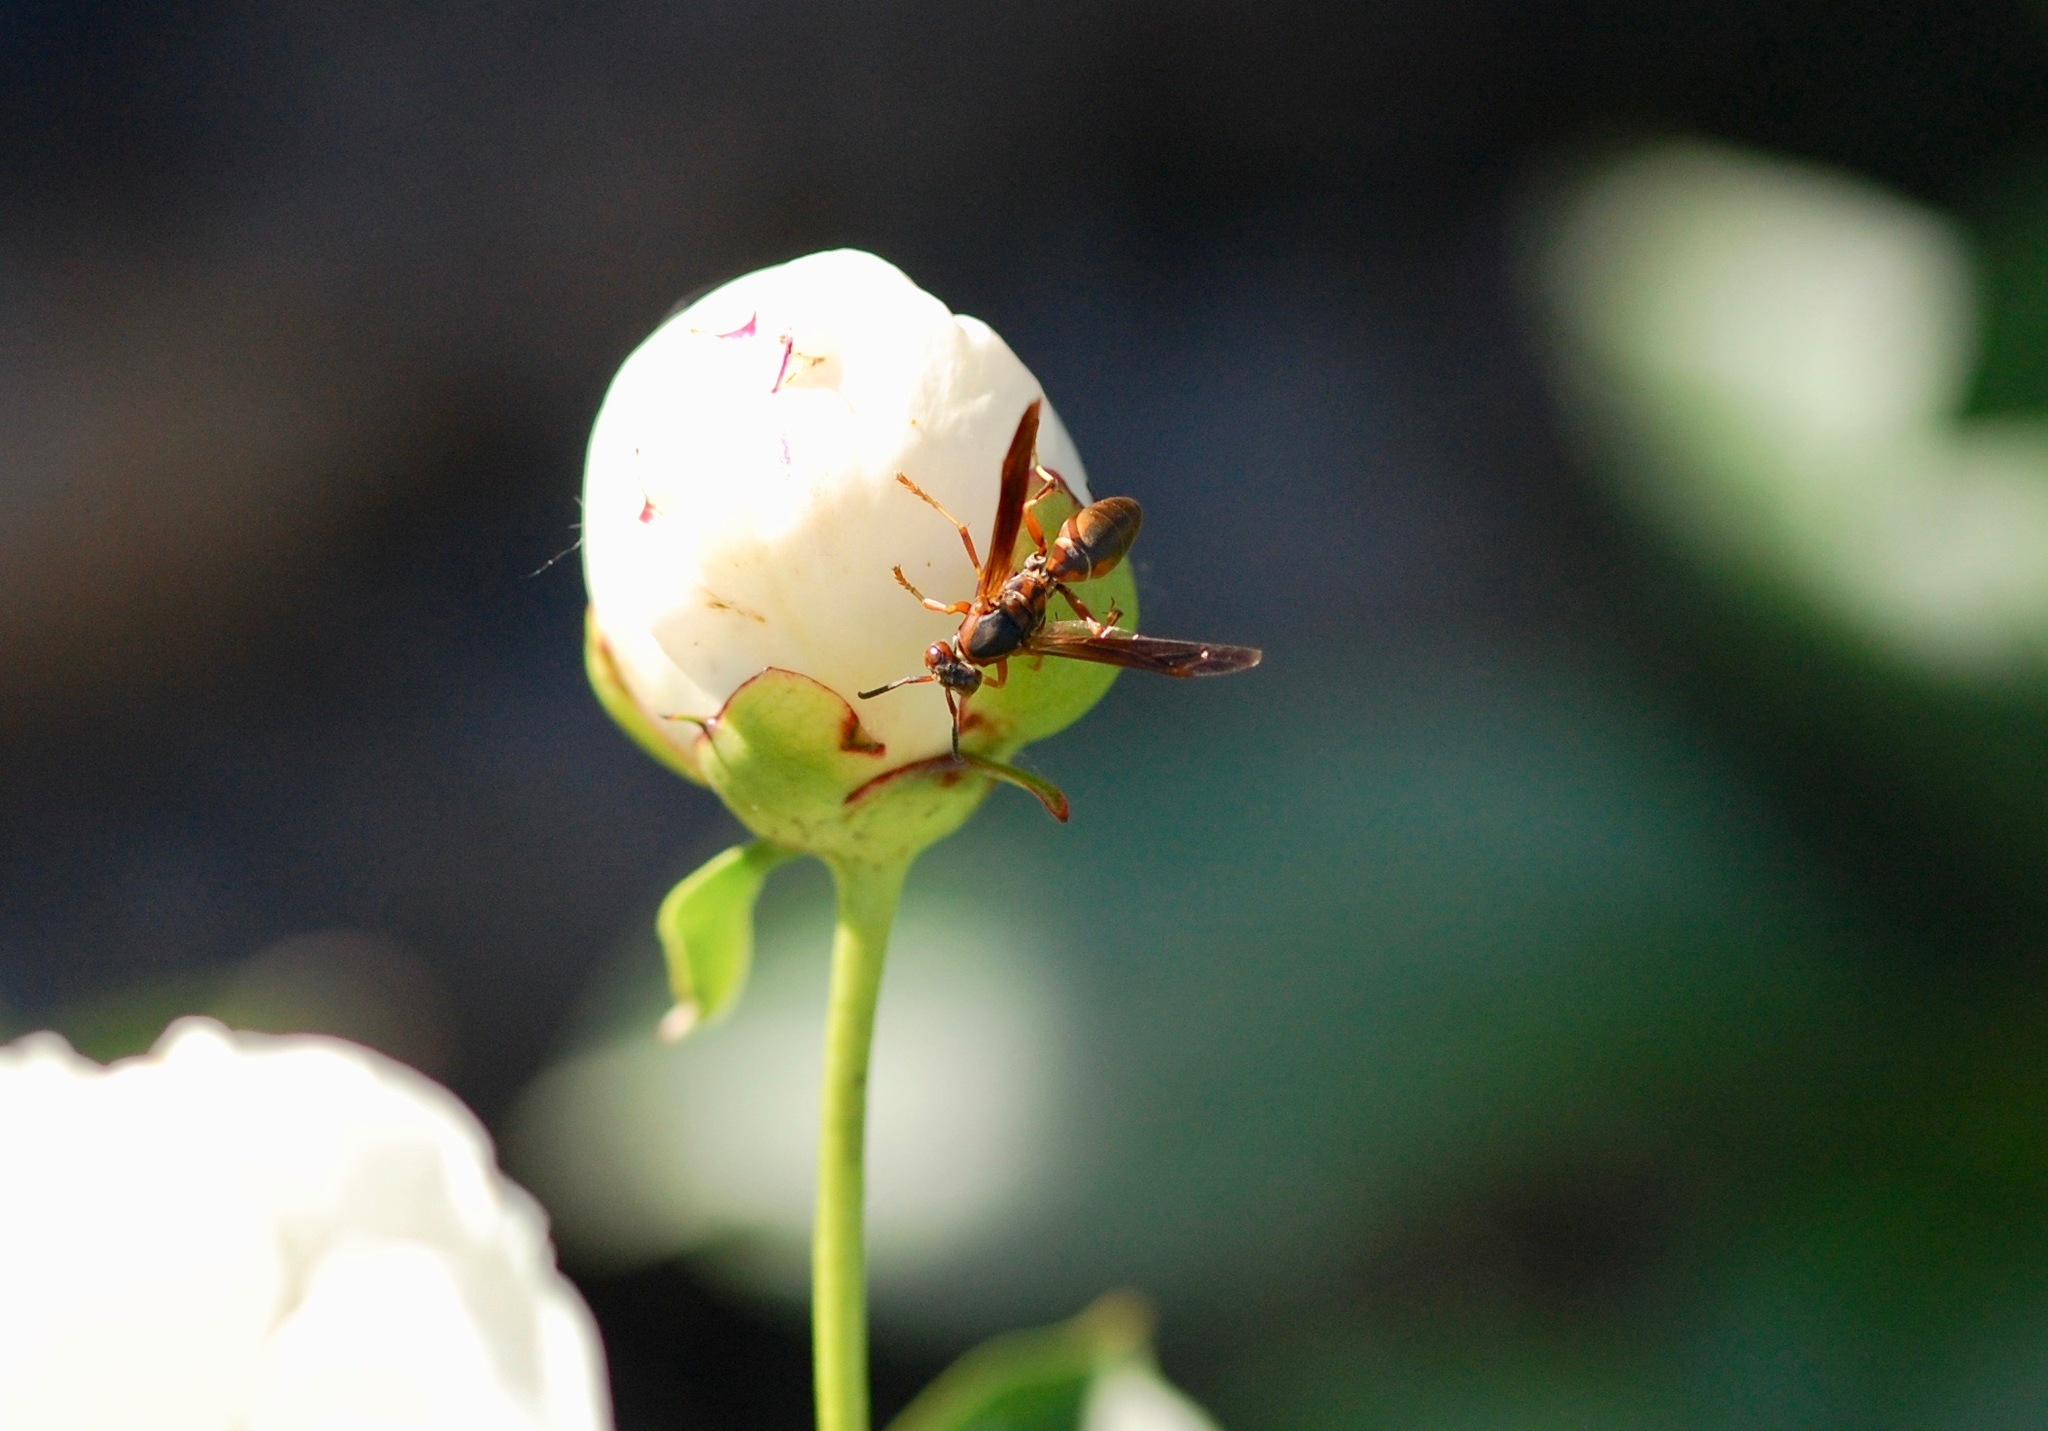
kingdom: Animalia
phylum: Arthropoda
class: Insecta
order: Hymenoptera
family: Eumenidae
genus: Polistes
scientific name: Polistes fuscatus
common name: Dark paper wasp
